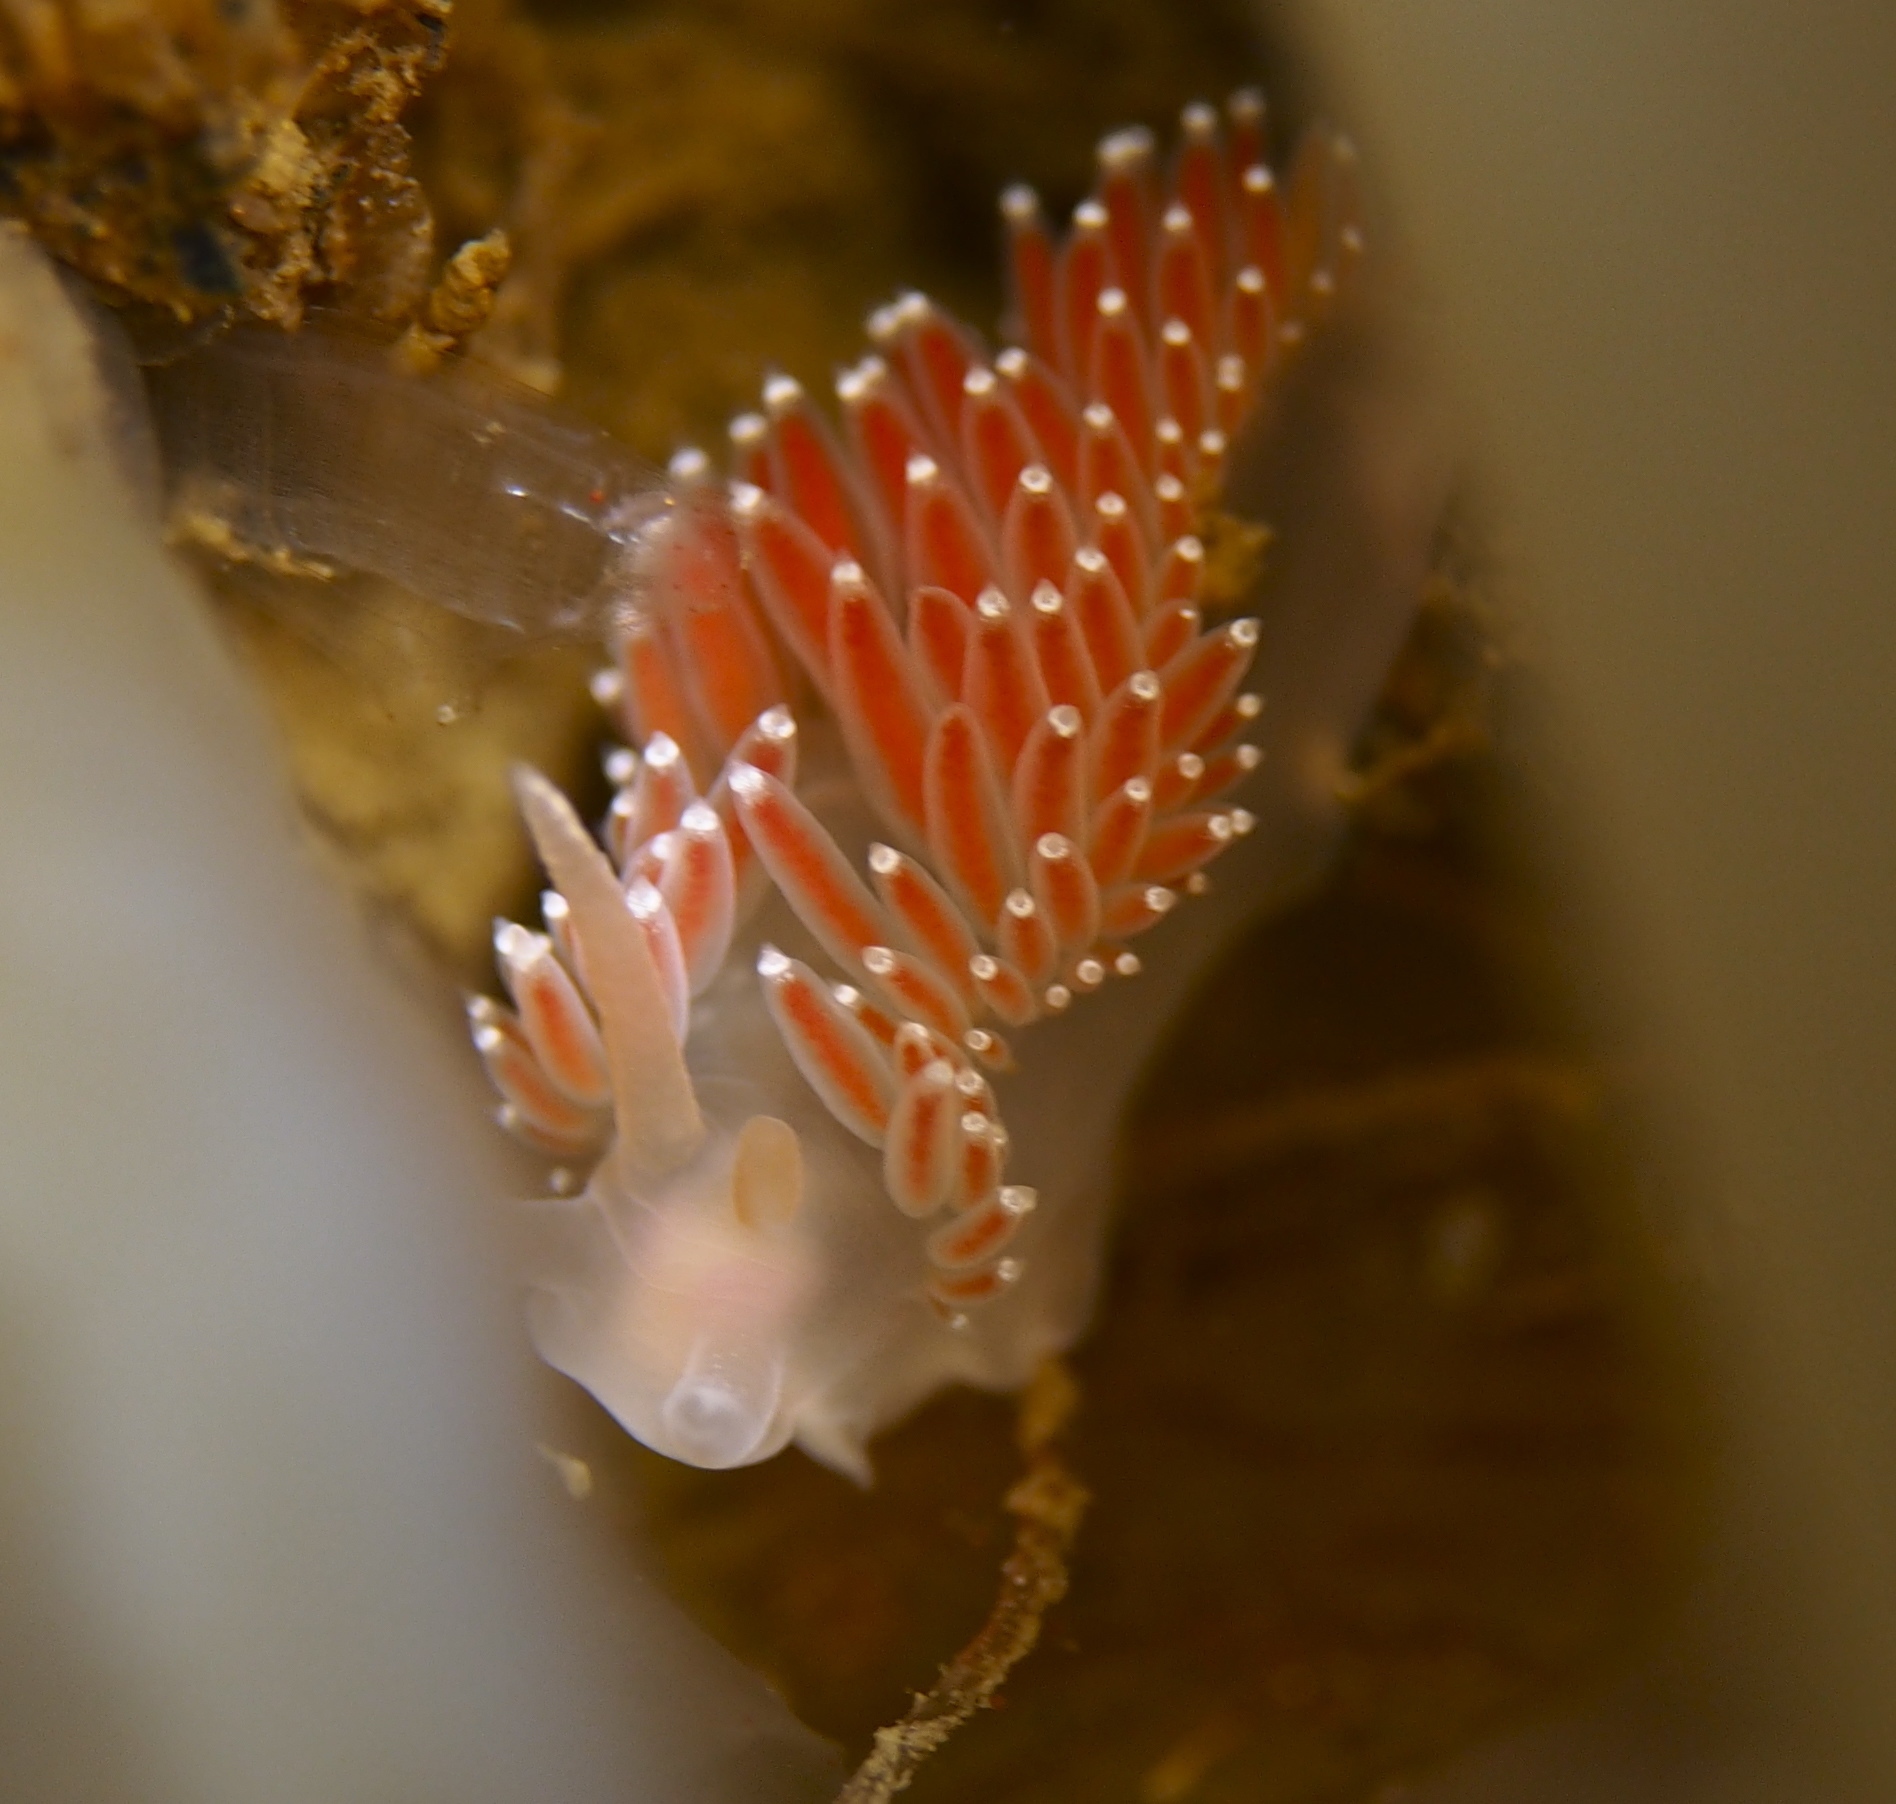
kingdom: Animalia
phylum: Mollusca
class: Gastropoda
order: Nudibranchia
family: Coryphellidae
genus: Coryphella
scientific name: Coryphella verrucosa
